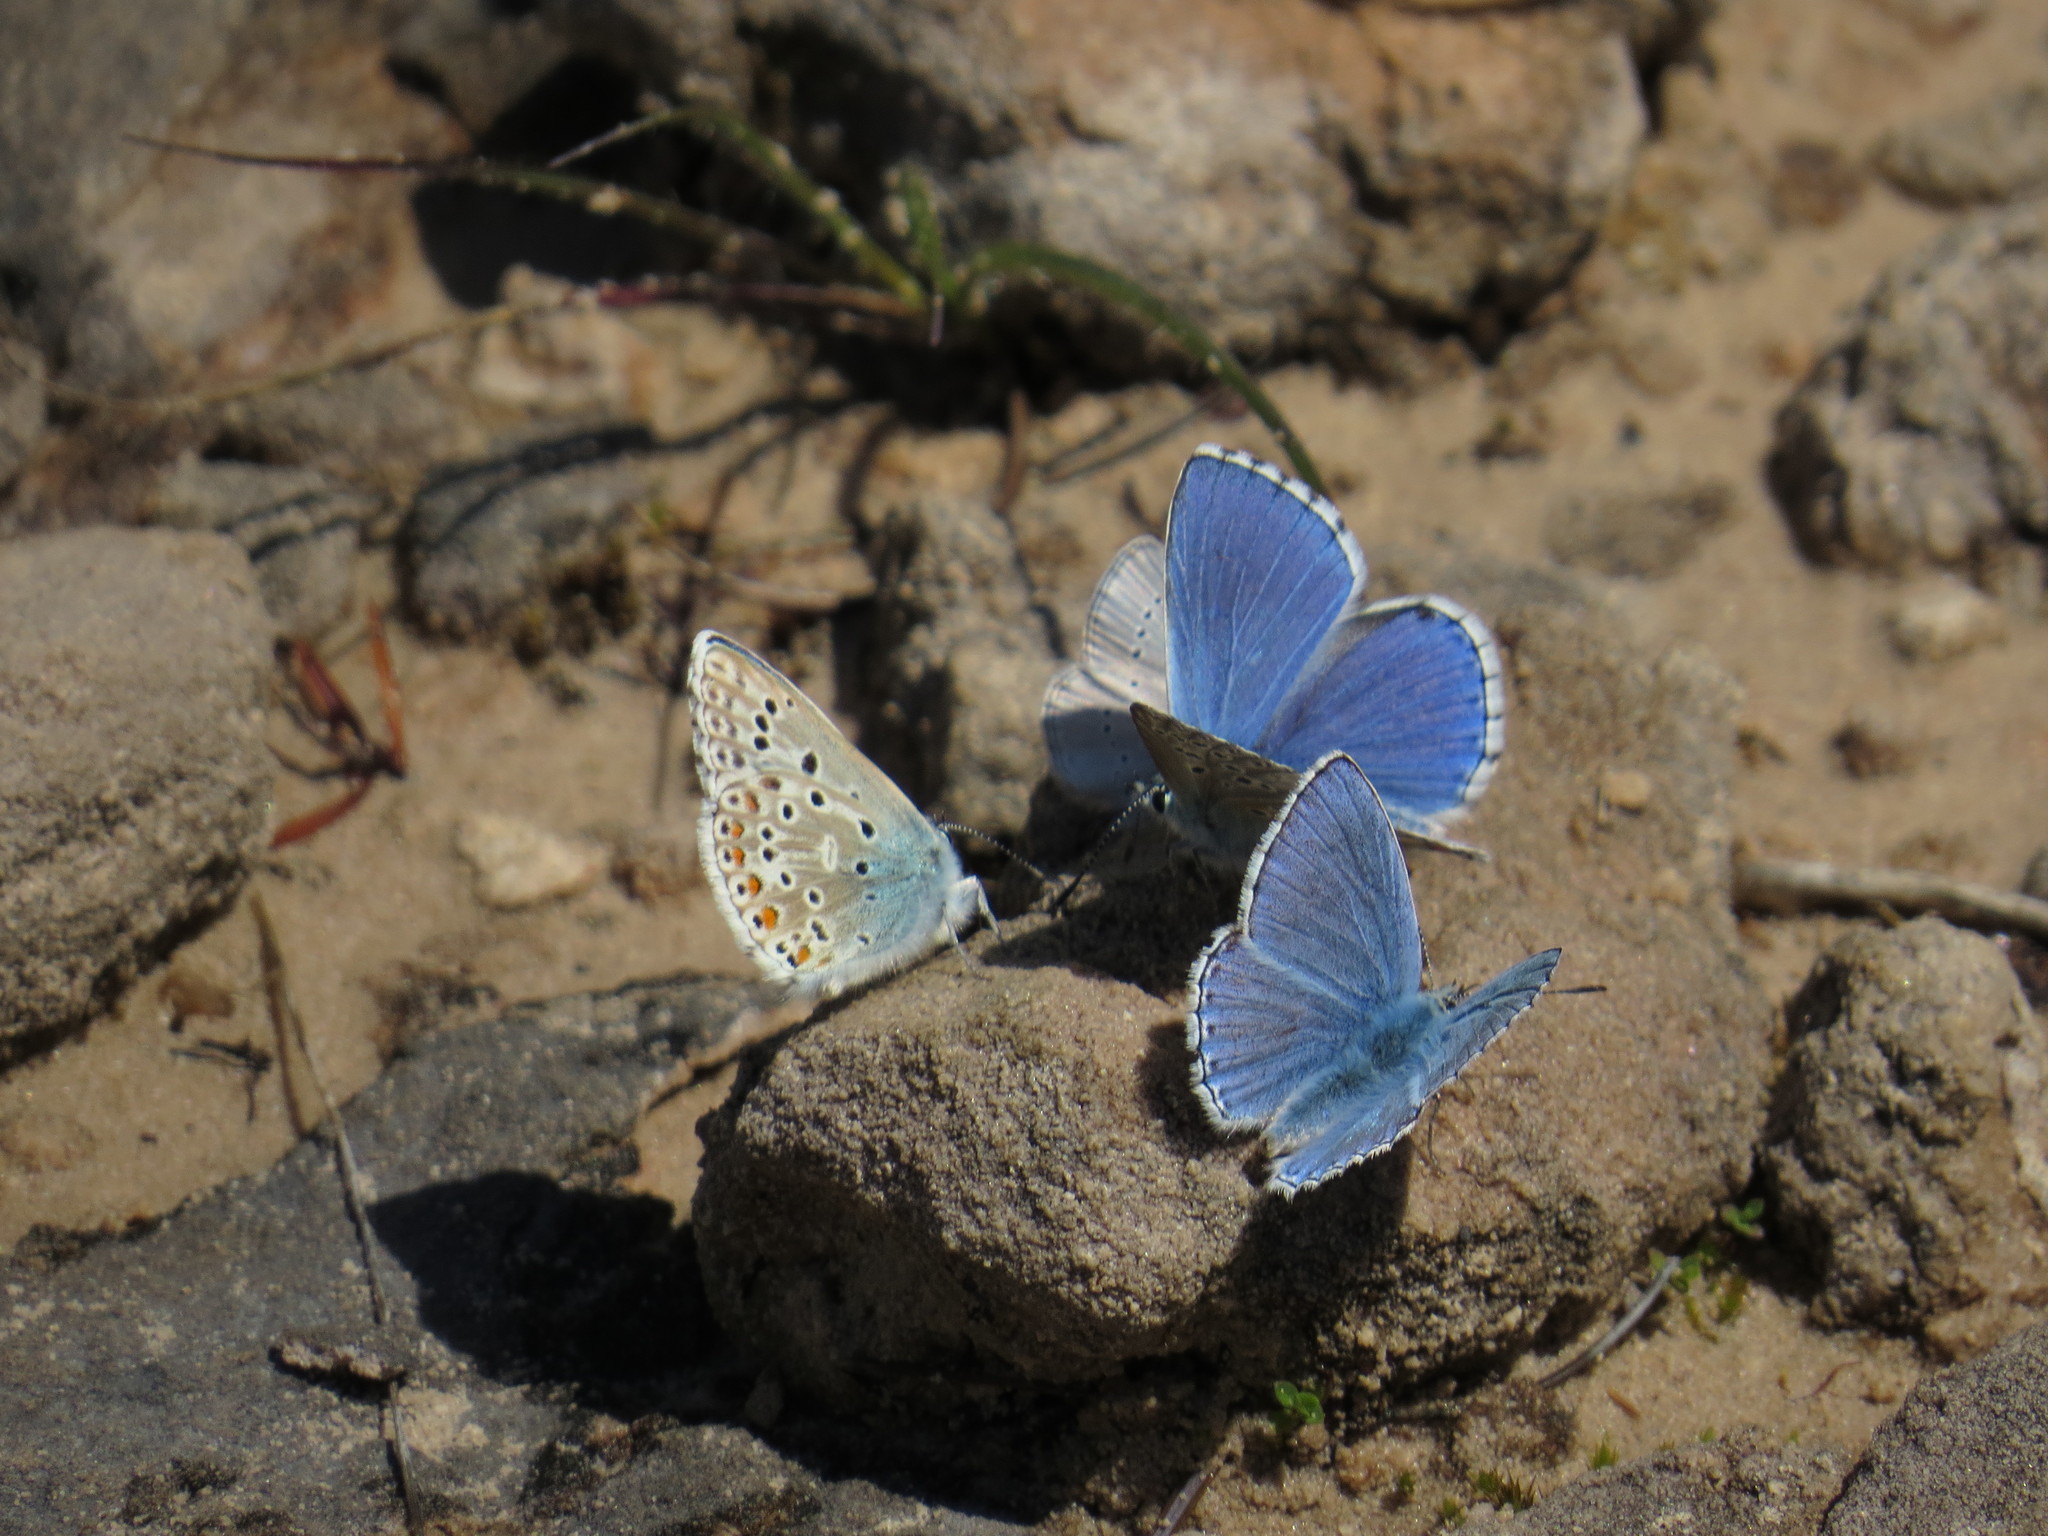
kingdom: Animalia
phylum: Arthropoda
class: Insecta
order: Lepidoptera
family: Lycaenidae
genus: Lysandra
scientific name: Lysandra bellargus
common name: Adonis blue
